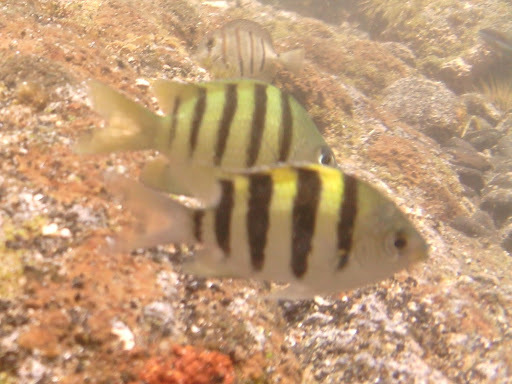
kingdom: Animalia
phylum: Chordata
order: Perciformes
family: Pomacentridae
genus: Abudefduf
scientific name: Abudefduf abdominalis
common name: Green damselfish
